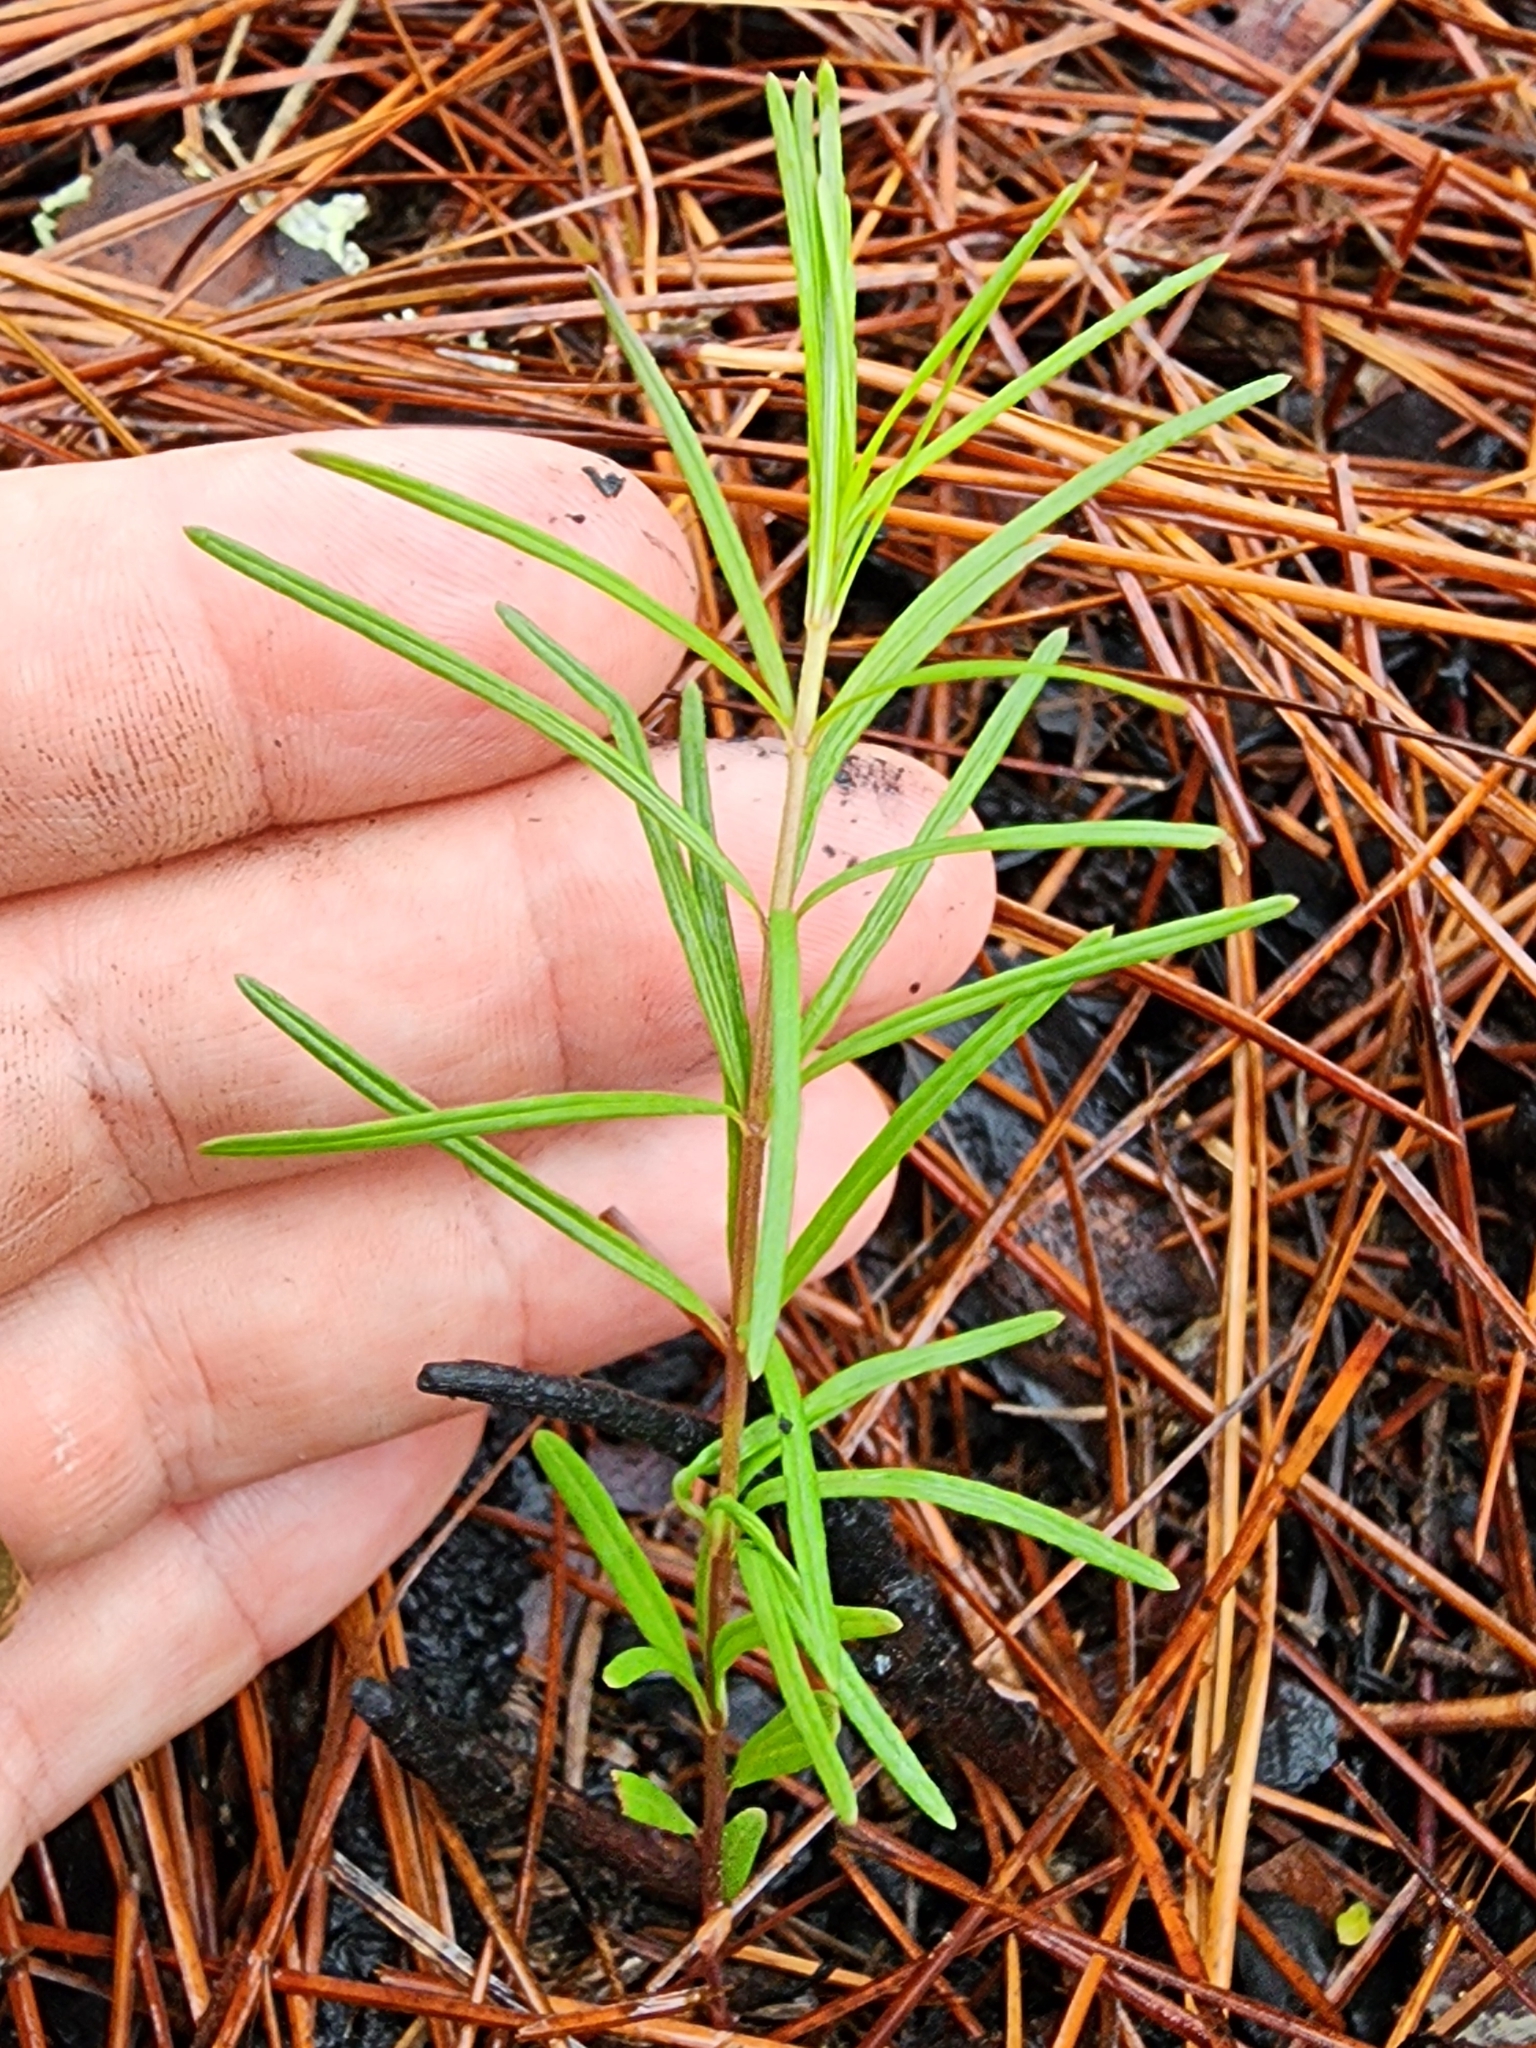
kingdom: Plantae
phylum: Tracheophyta
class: Magnoliopsida
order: Gentianales
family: Apocynaceae
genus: Asclepias
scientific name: Asclepias verticillata
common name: Eastern whorled milkweed
